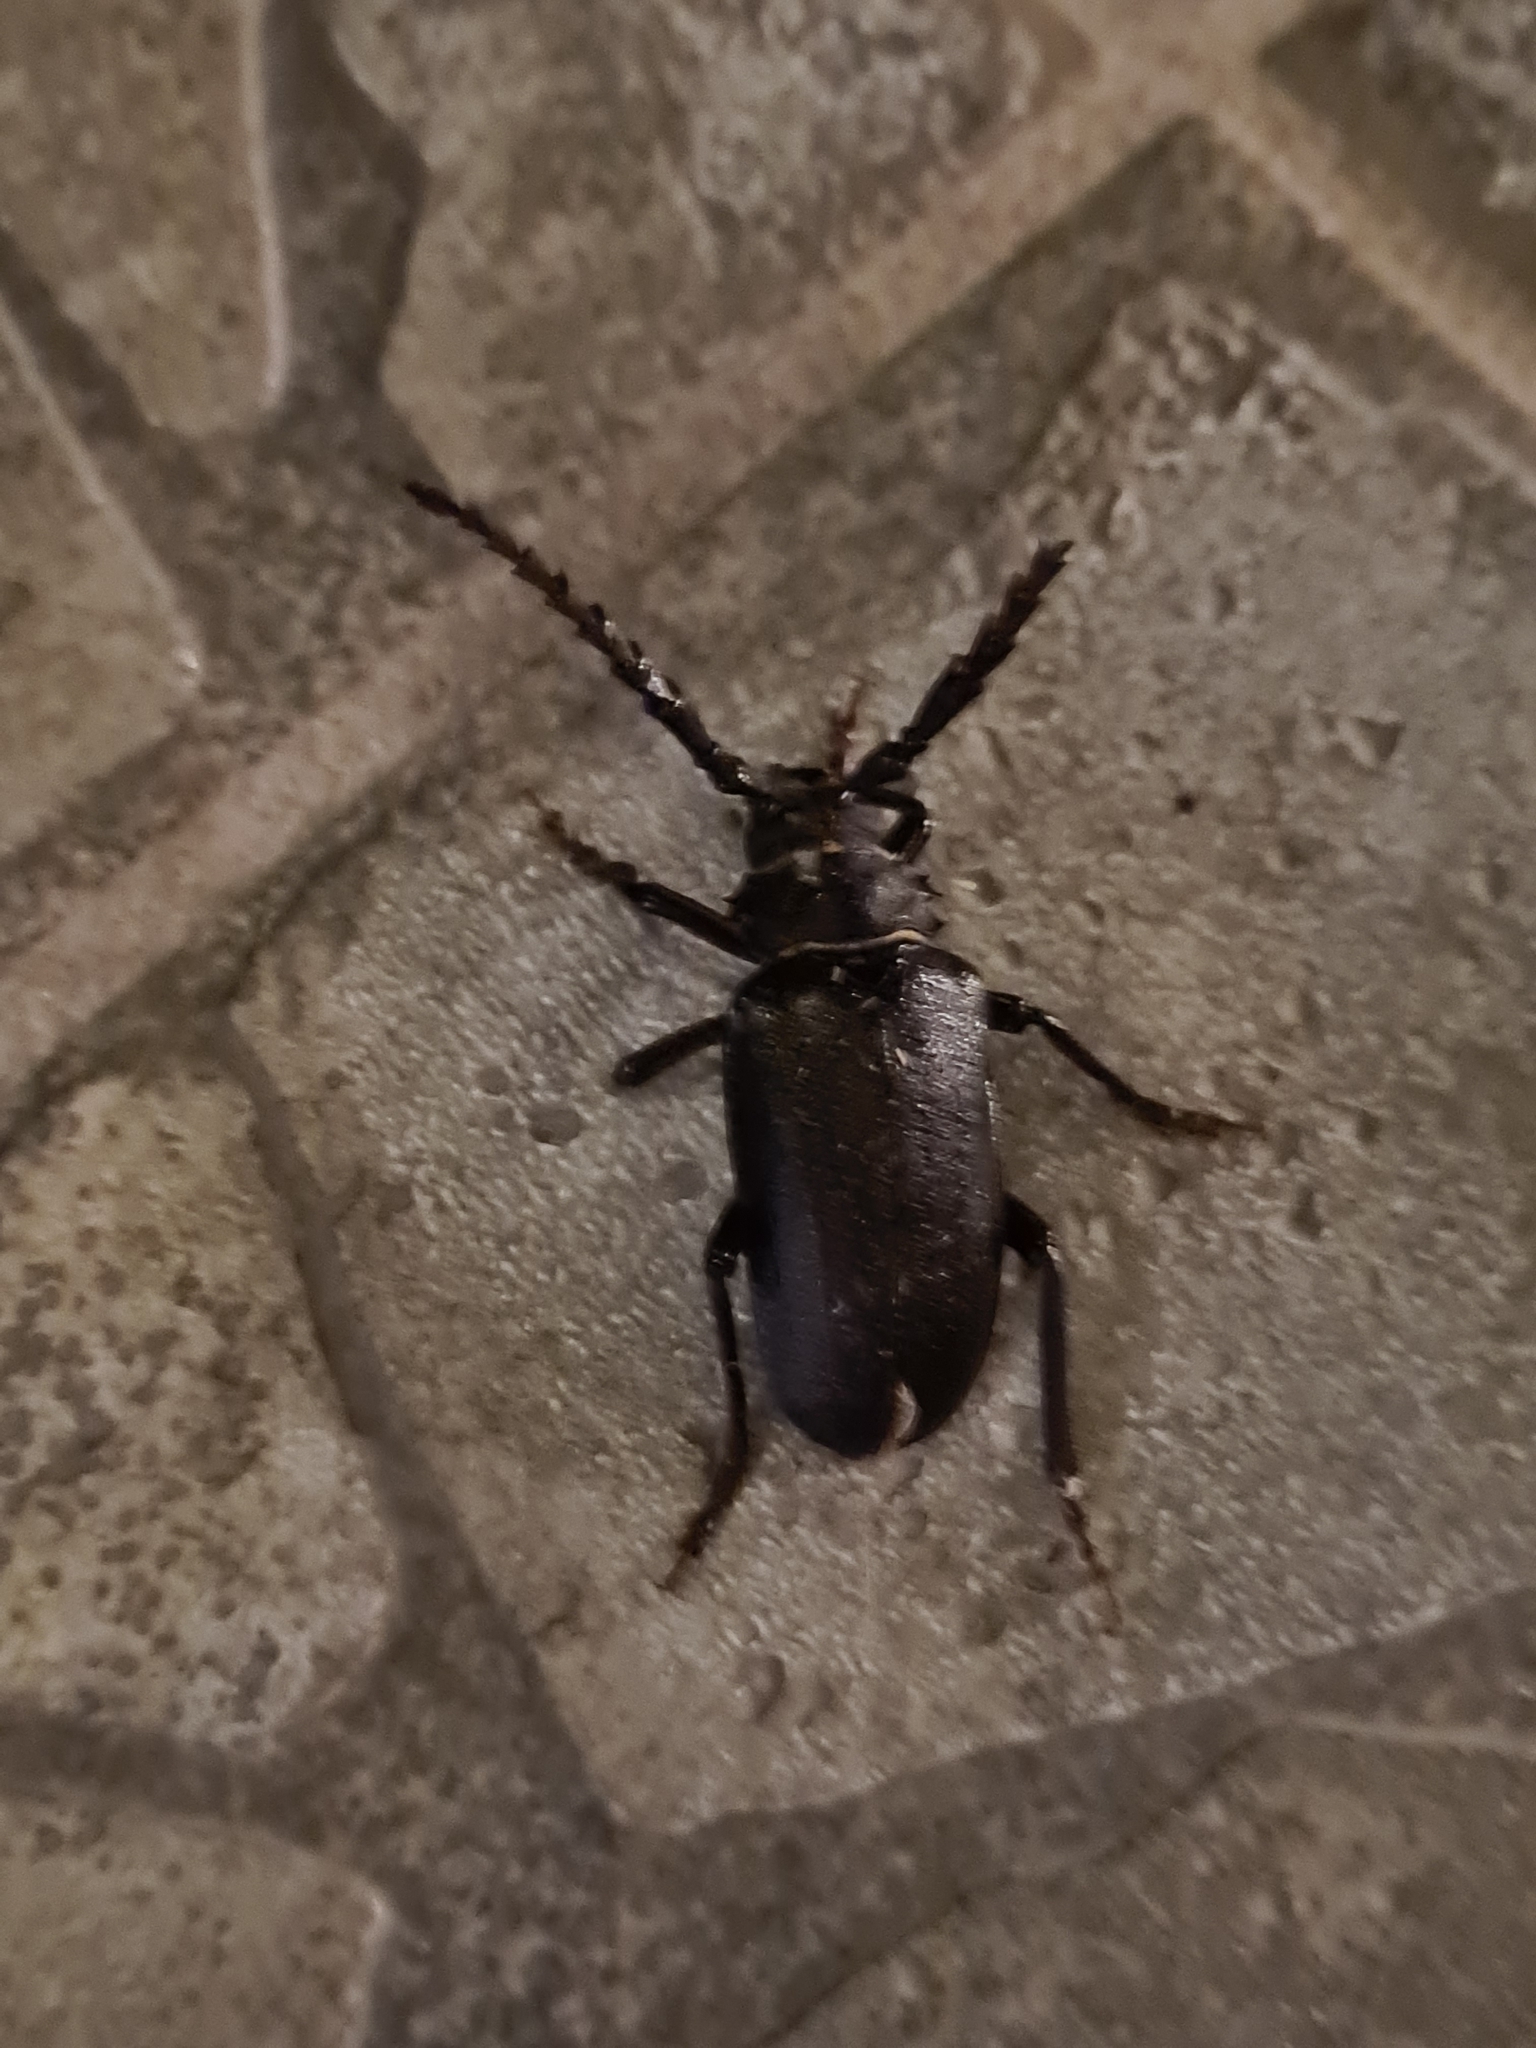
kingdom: Animalia
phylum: Arthropoda
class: Insecta
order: Coleoptera
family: Cerambycidae
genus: Prionus
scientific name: Prionus coriarius
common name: Tanner beetle
